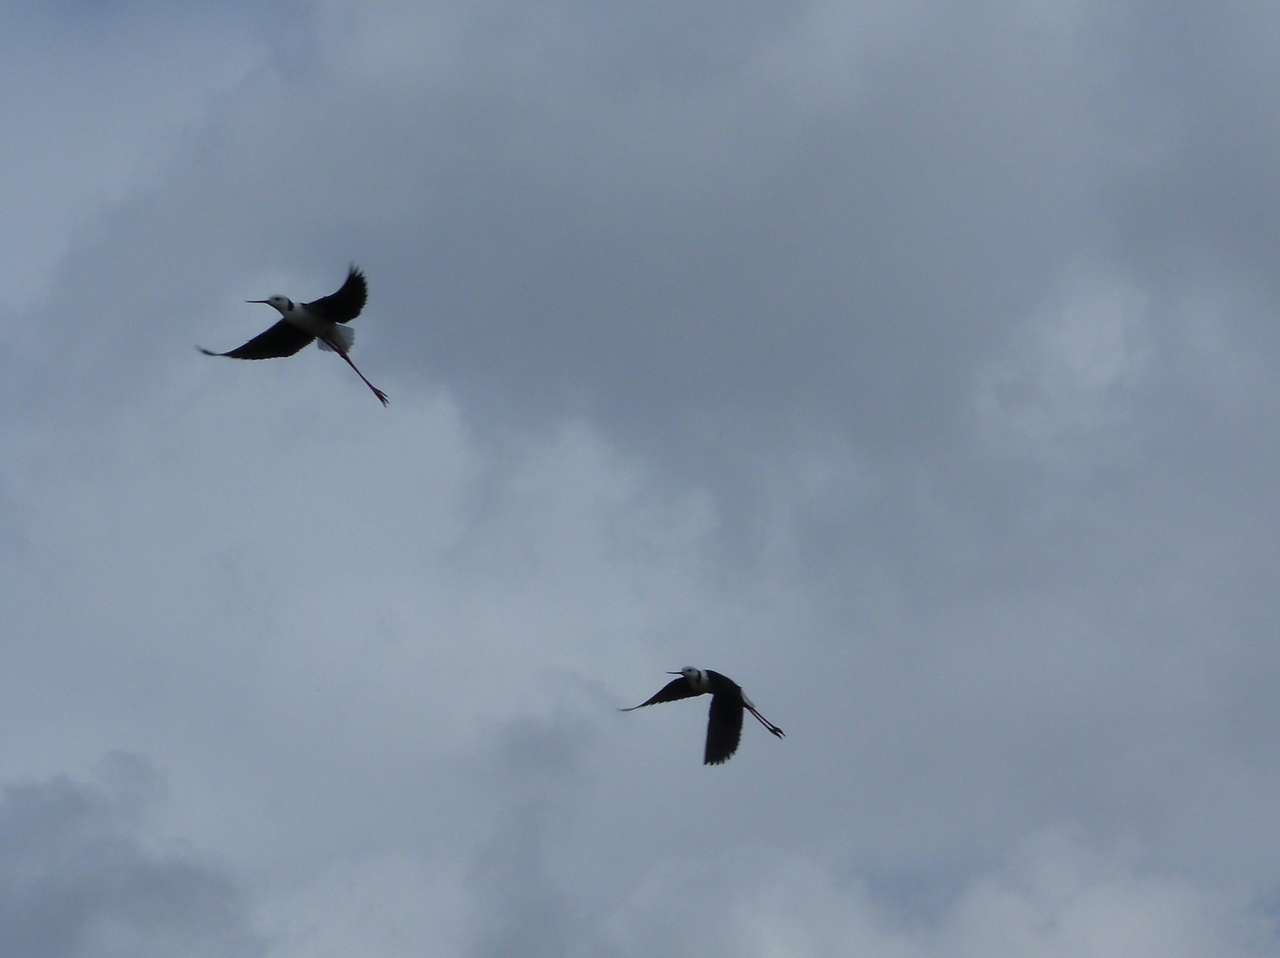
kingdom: Animalia
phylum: Chordata
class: Aves
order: Charadriiformes
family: Recurvirostridae
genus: Himantopus
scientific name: Himantopus leucocephalus
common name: White-headed stilt
